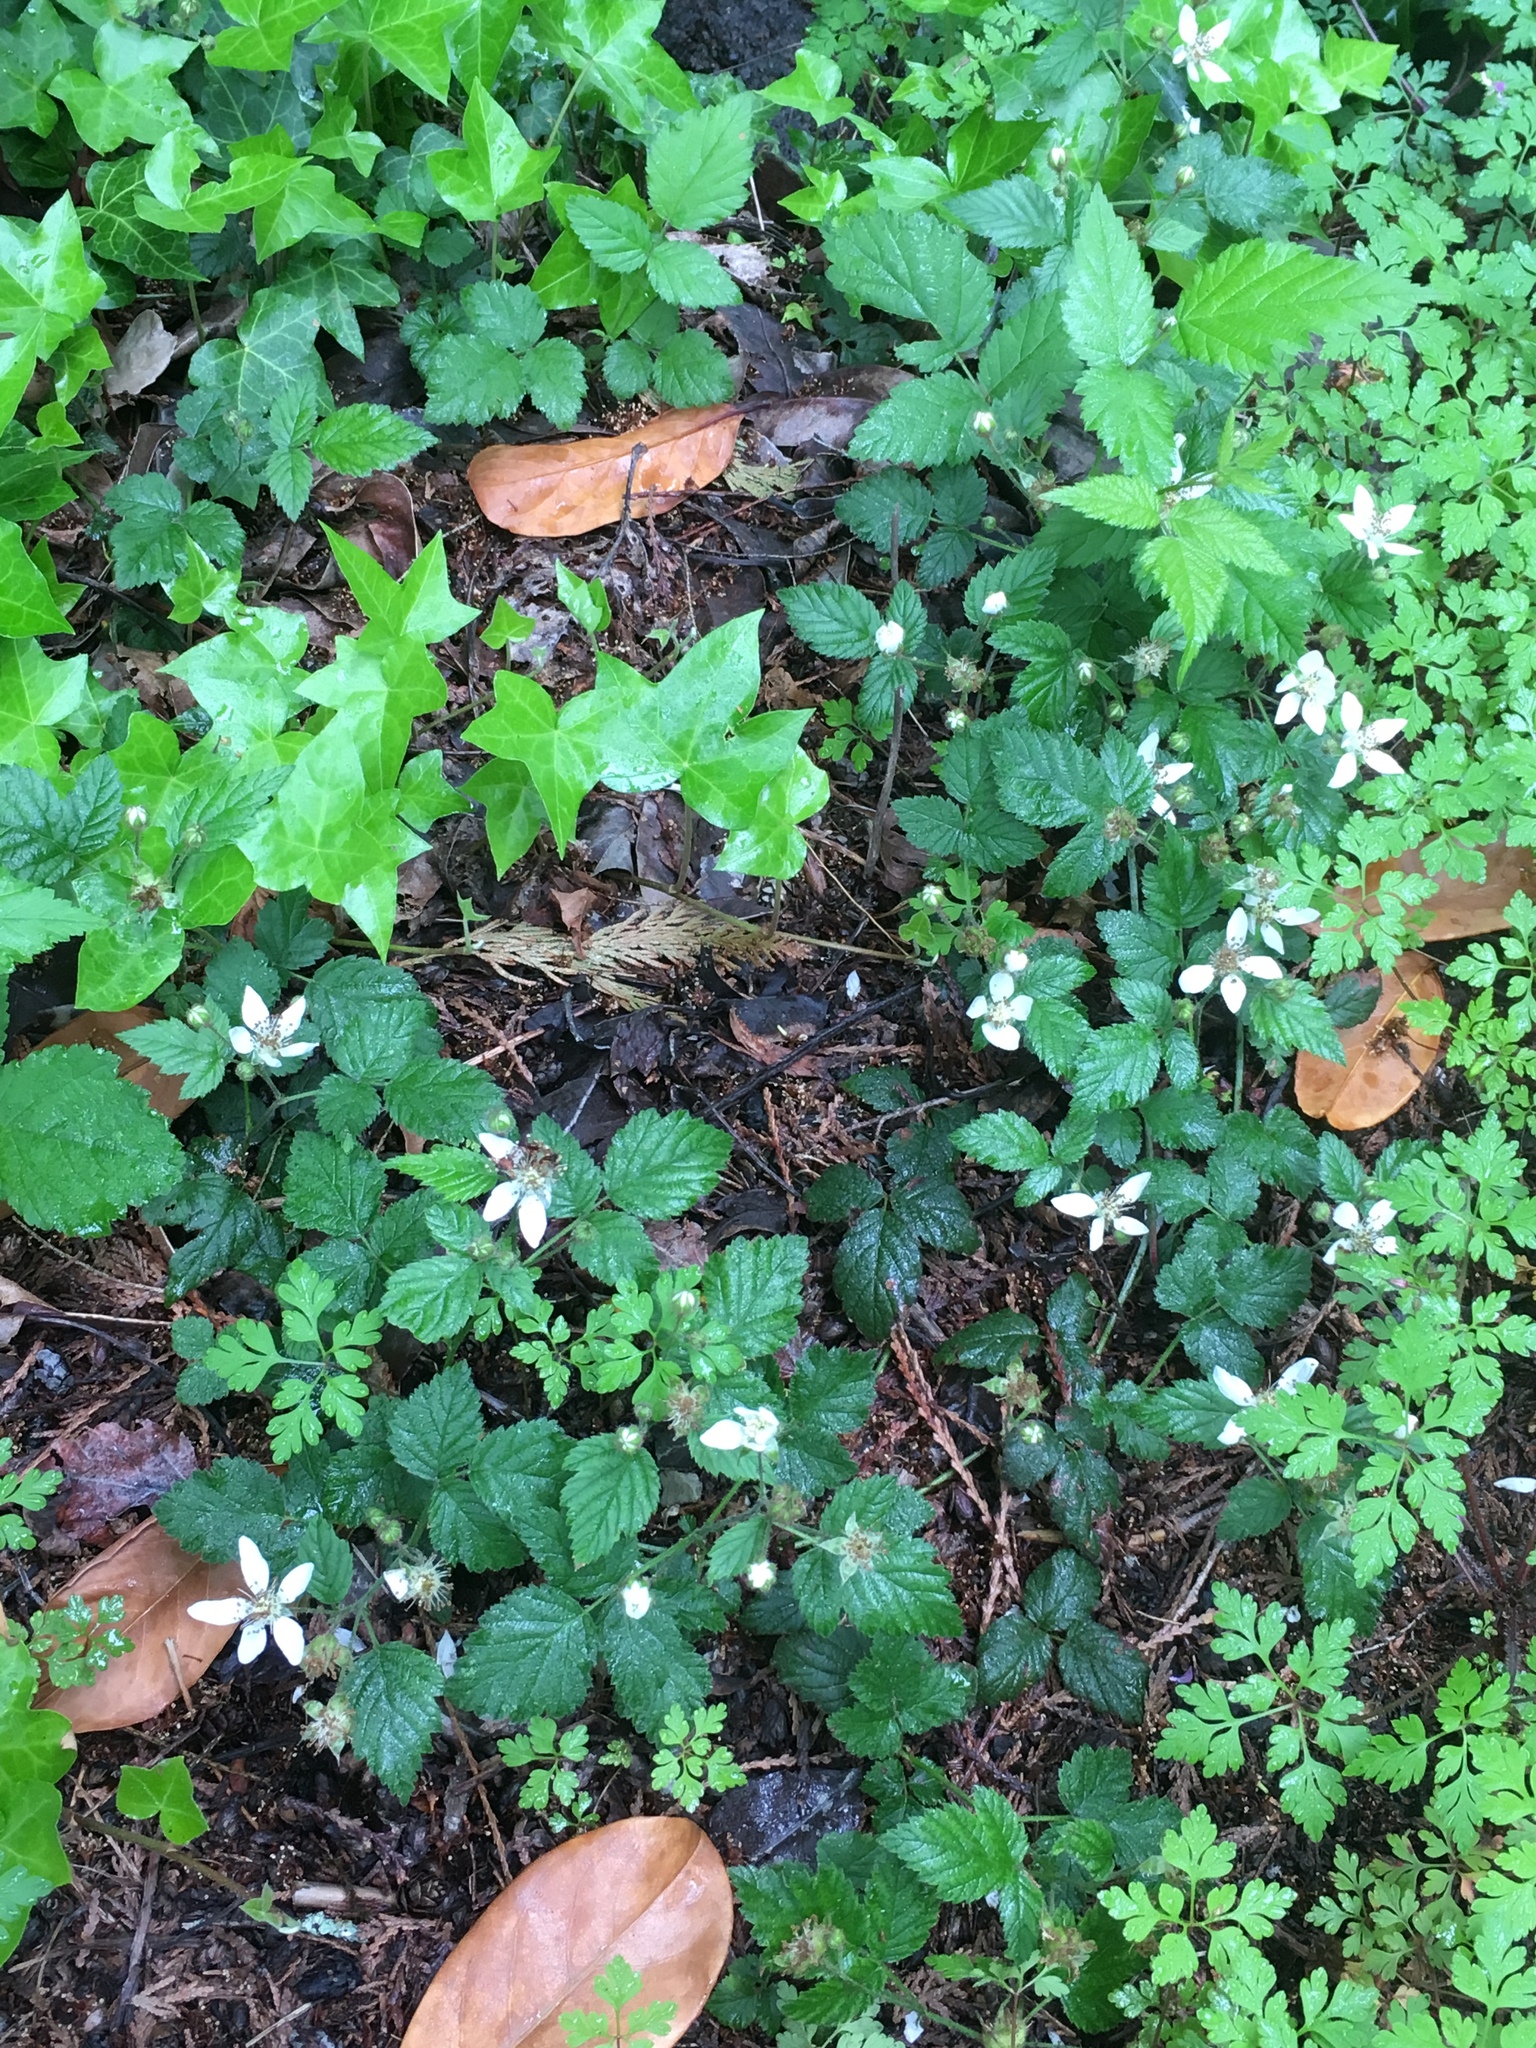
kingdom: Plantae
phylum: Tracheophyta
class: Magnoliopsida
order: Rosales
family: Rosaceae
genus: Rubus
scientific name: Rubus ursinus
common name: Pacific blackberry
